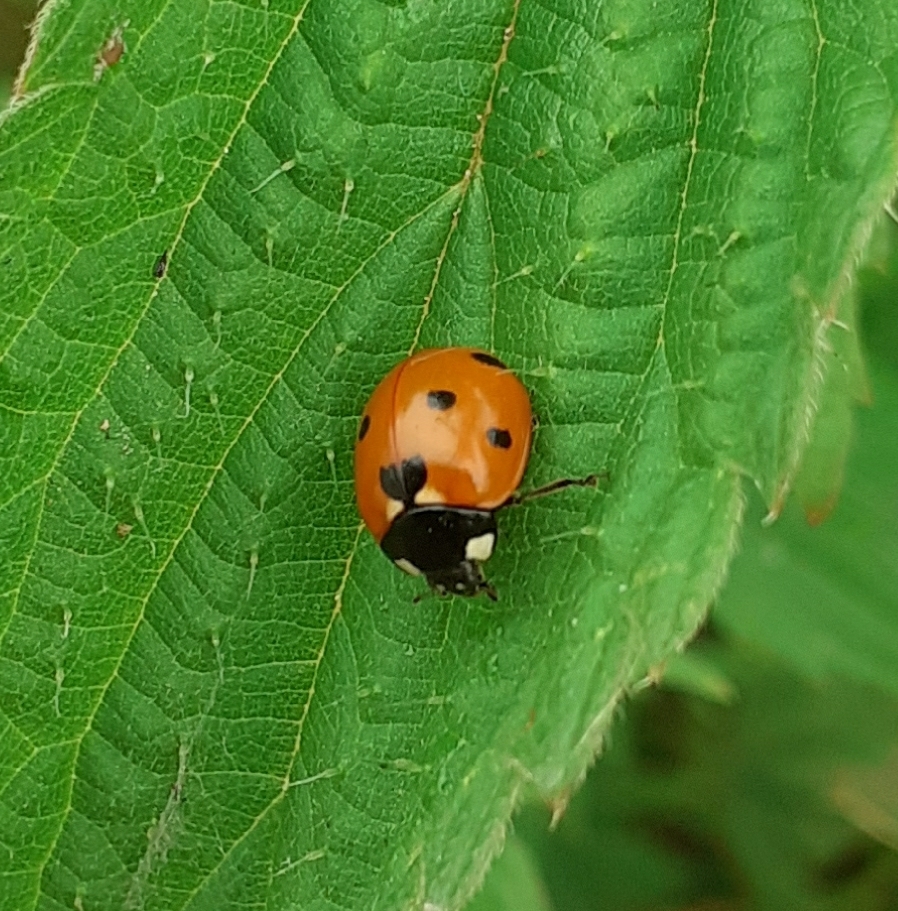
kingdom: Animalia
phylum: Arthropoda
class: Insecta
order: Coleoptera
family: Coccinellidae
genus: Coccinella
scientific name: Coccinella septempunctata
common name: Sevenspotted lady beetle
